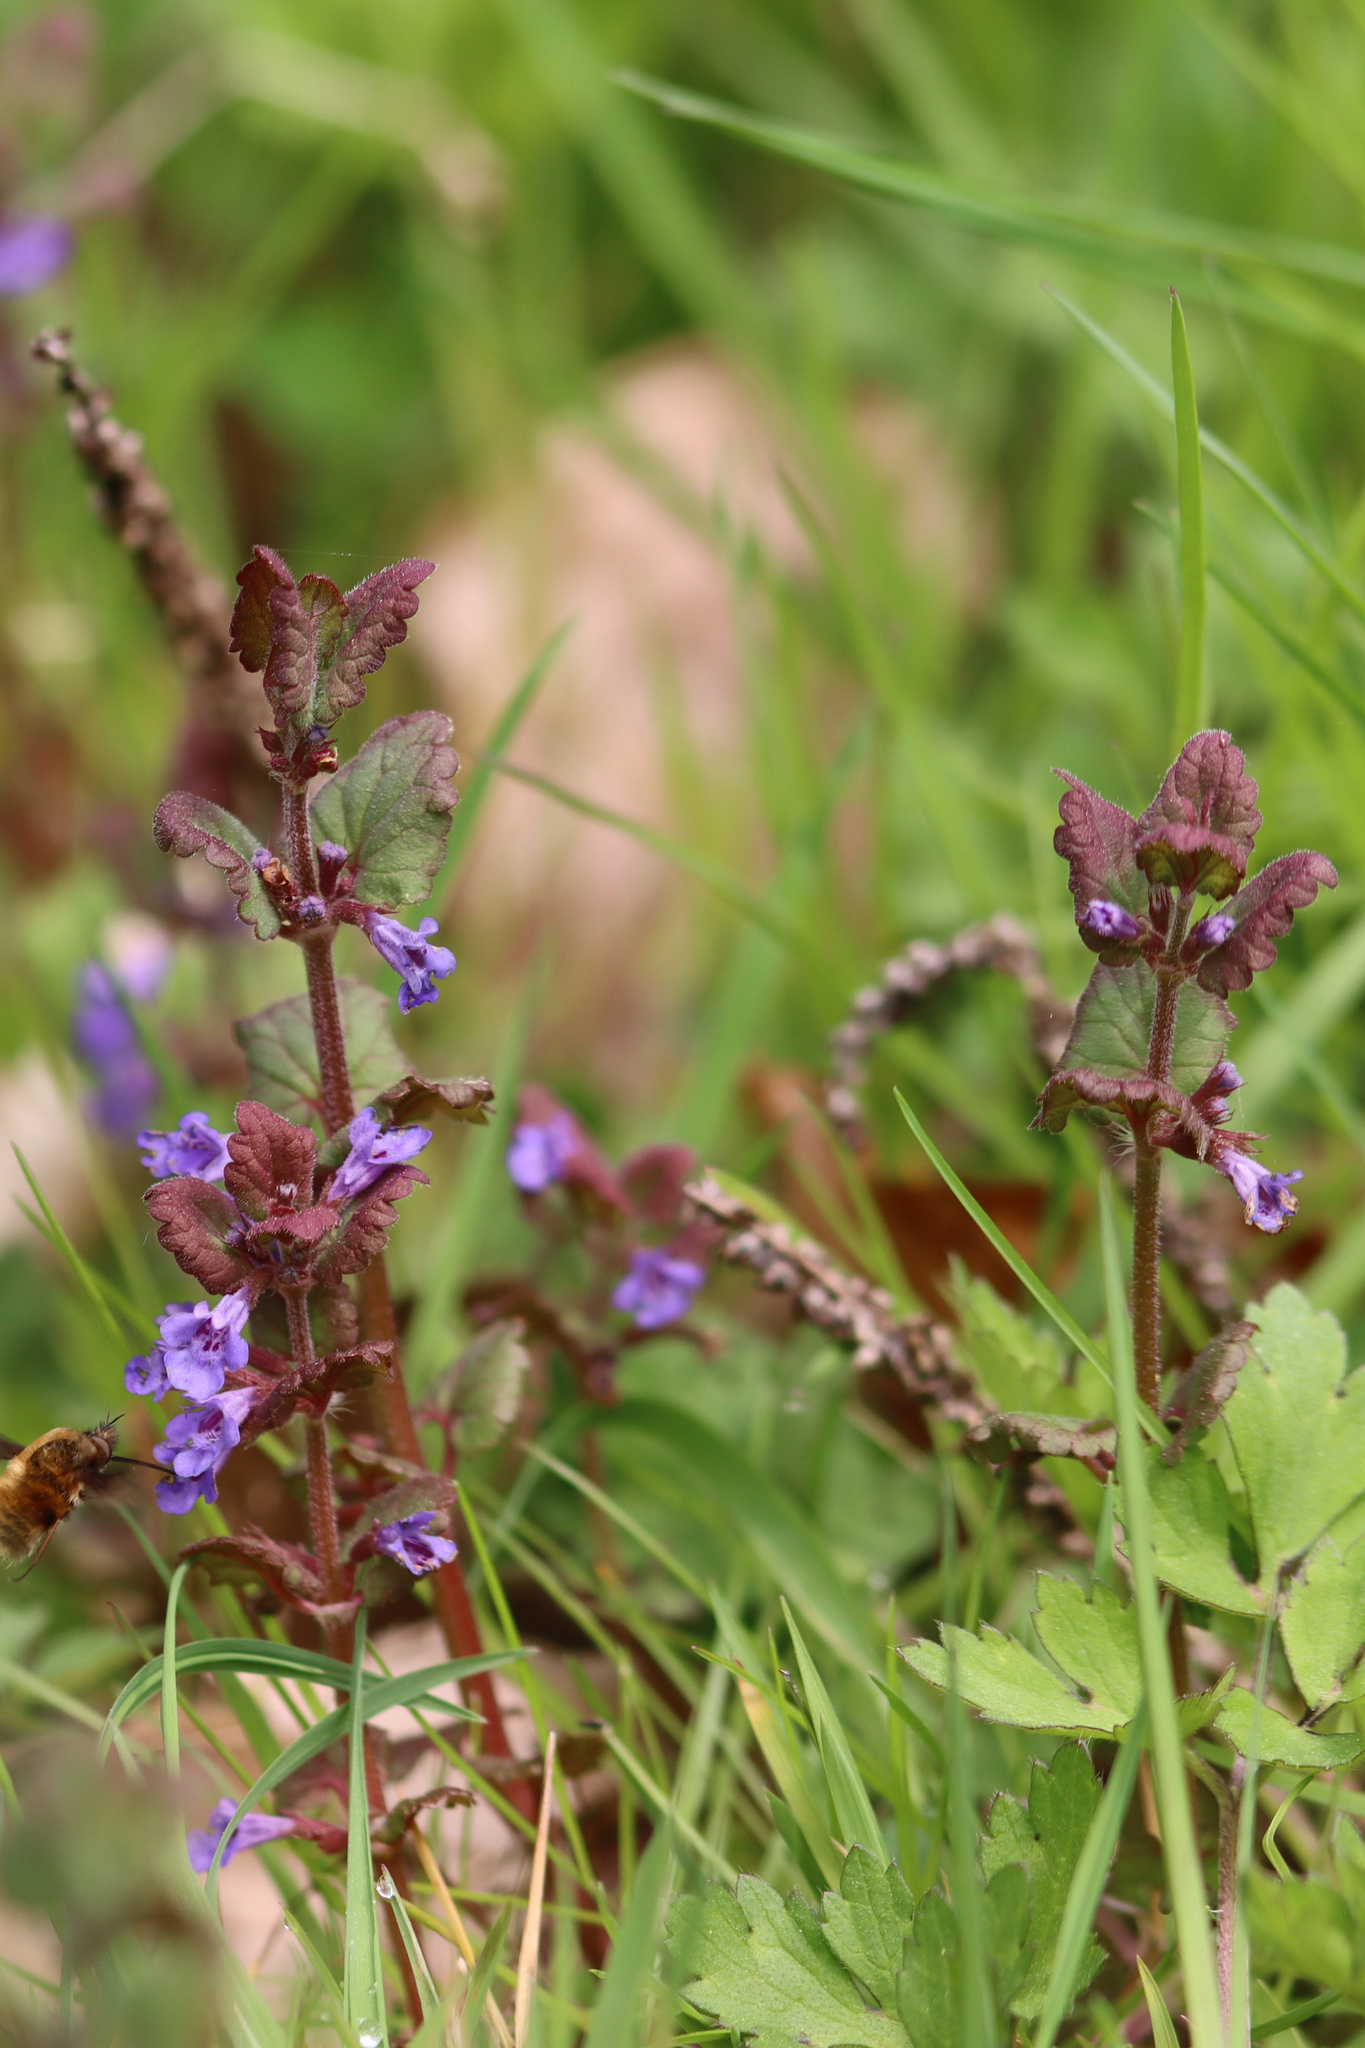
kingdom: Plantae
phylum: Tracheophyta
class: Magnoliopsida
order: Lamiales
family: Lamiaceae
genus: Glechoma
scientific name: Glechoma hederacea
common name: Ground ivy
